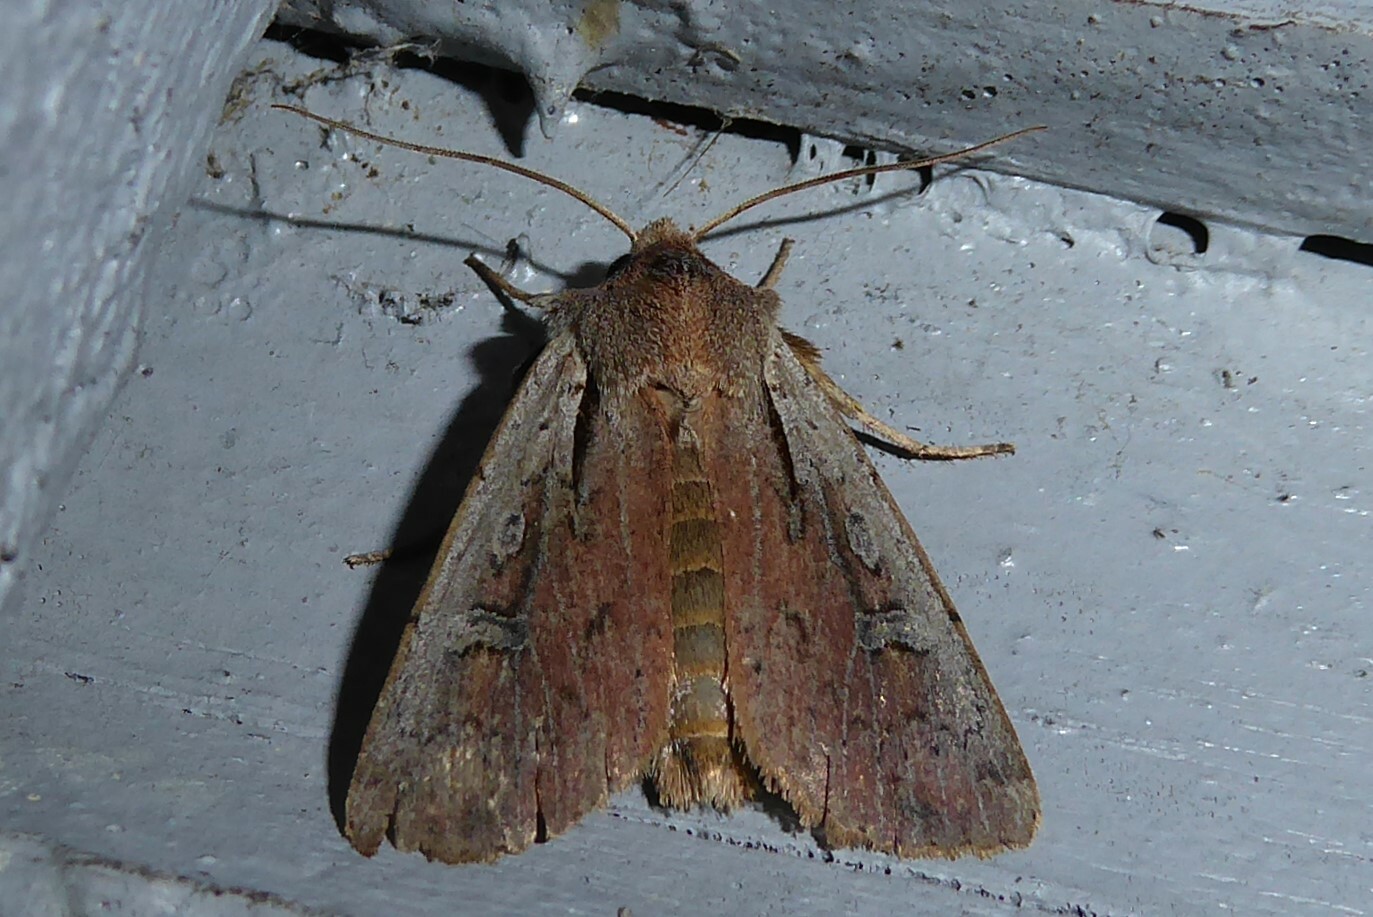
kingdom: Animalia
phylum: Arthropoda
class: Insecta
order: Lepidoptera
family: Noctuidae
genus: Ichneutica
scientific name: Ichneutica atristriga
